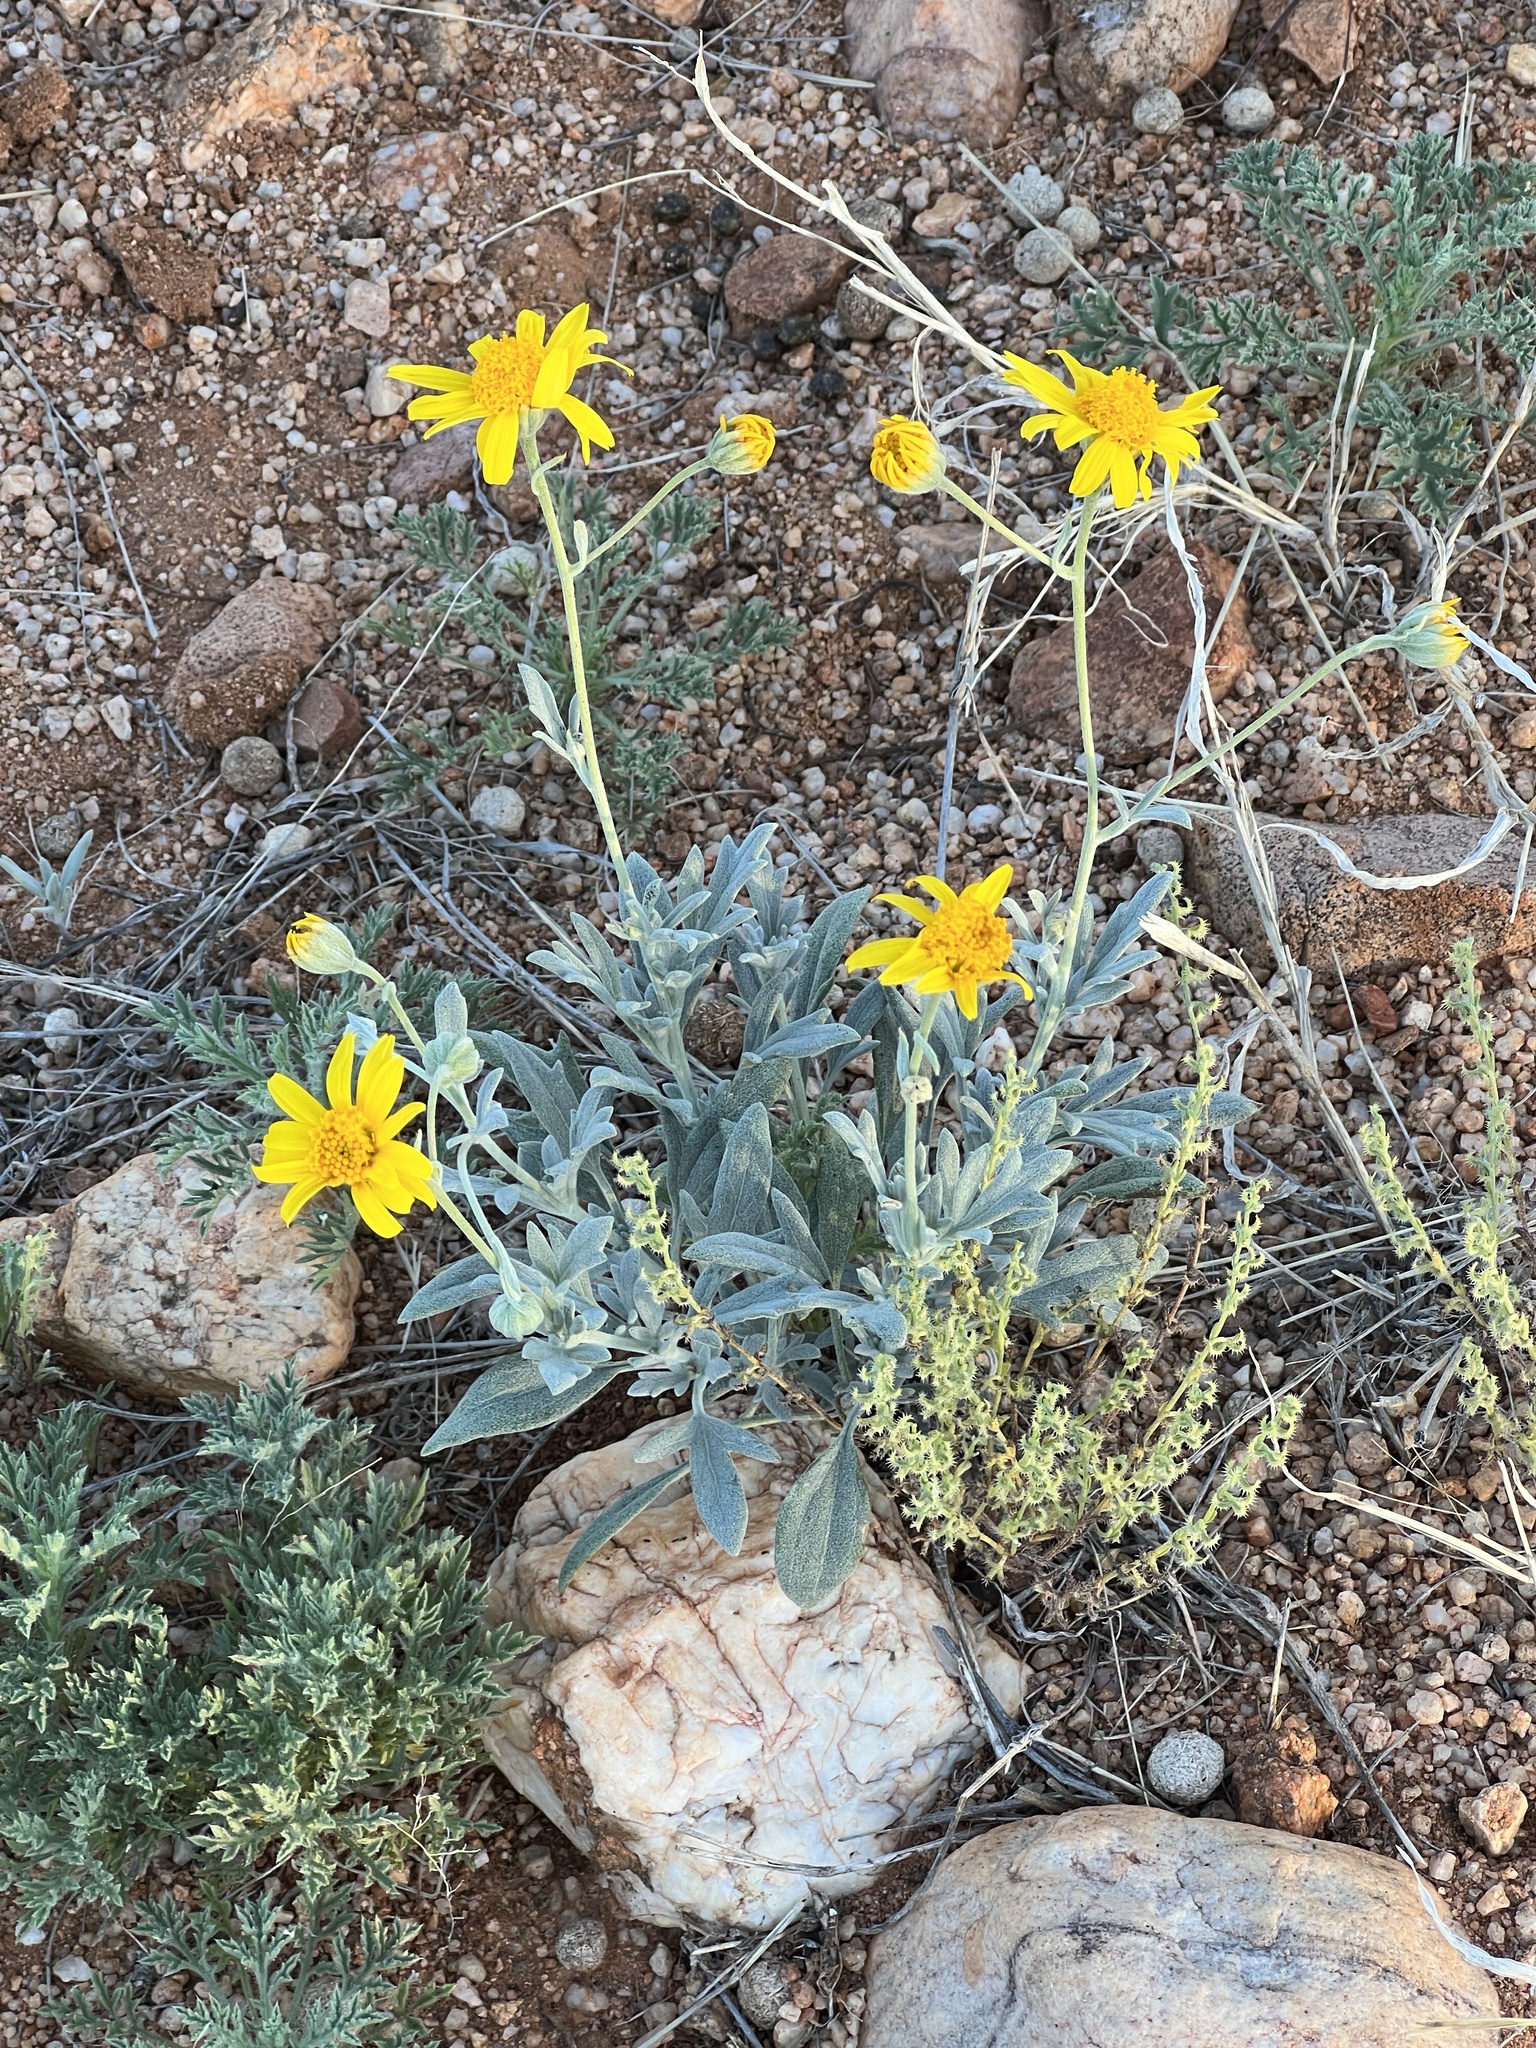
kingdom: Plantae
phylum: Tracheophyta
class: Magnoliopsida
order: Asterales
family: Asteraceae
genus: Picradeniopsis
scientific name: Picradeniopsis absinthifolia
